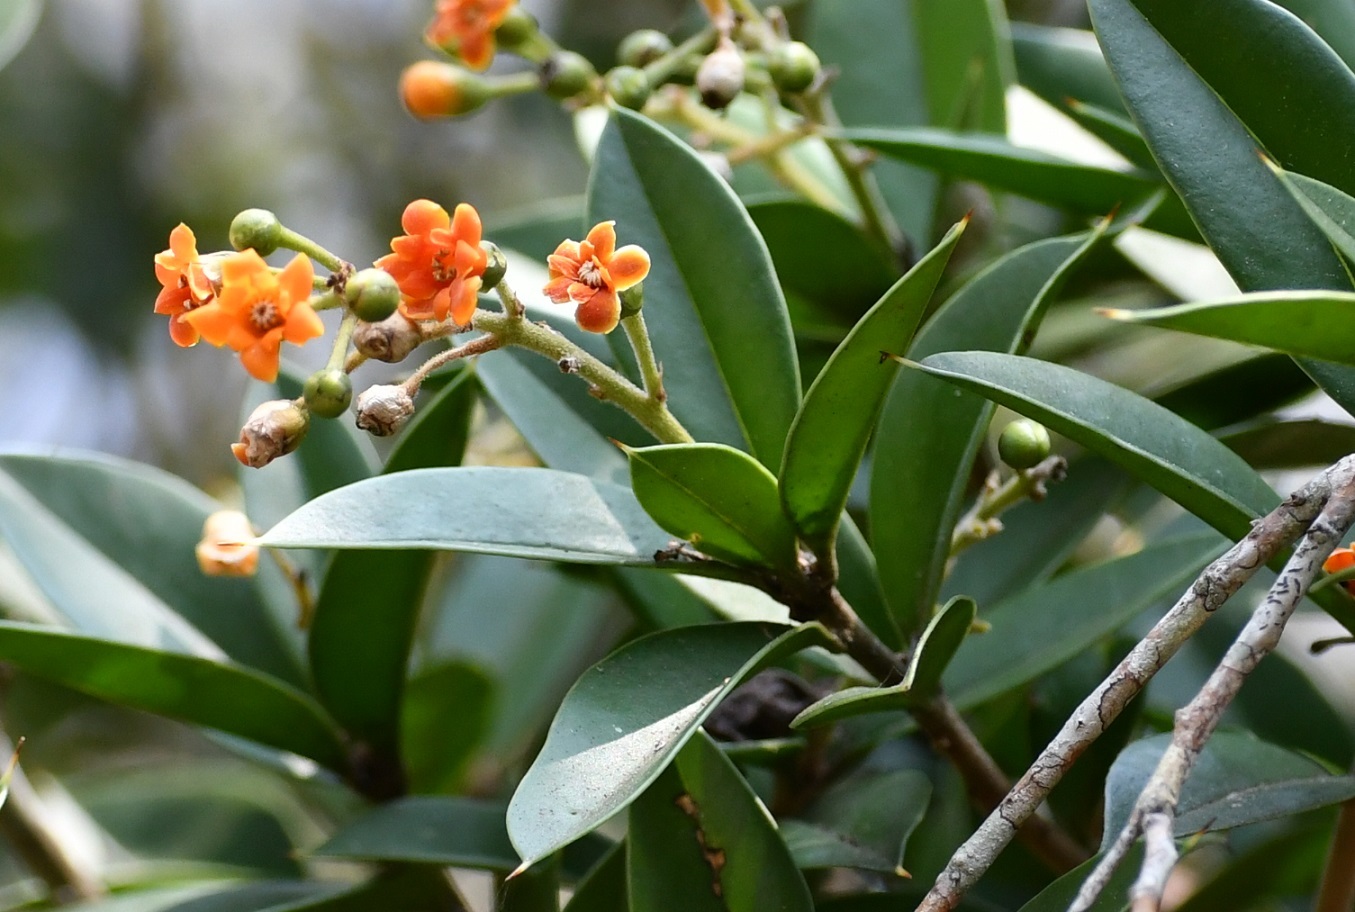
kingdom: Plantae
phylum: Tracheophyta
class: Magnoliopsida
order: Ericales
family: Primulaceae
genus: Bonellia
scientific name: Bonellia macrocarpa
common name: Primrose
